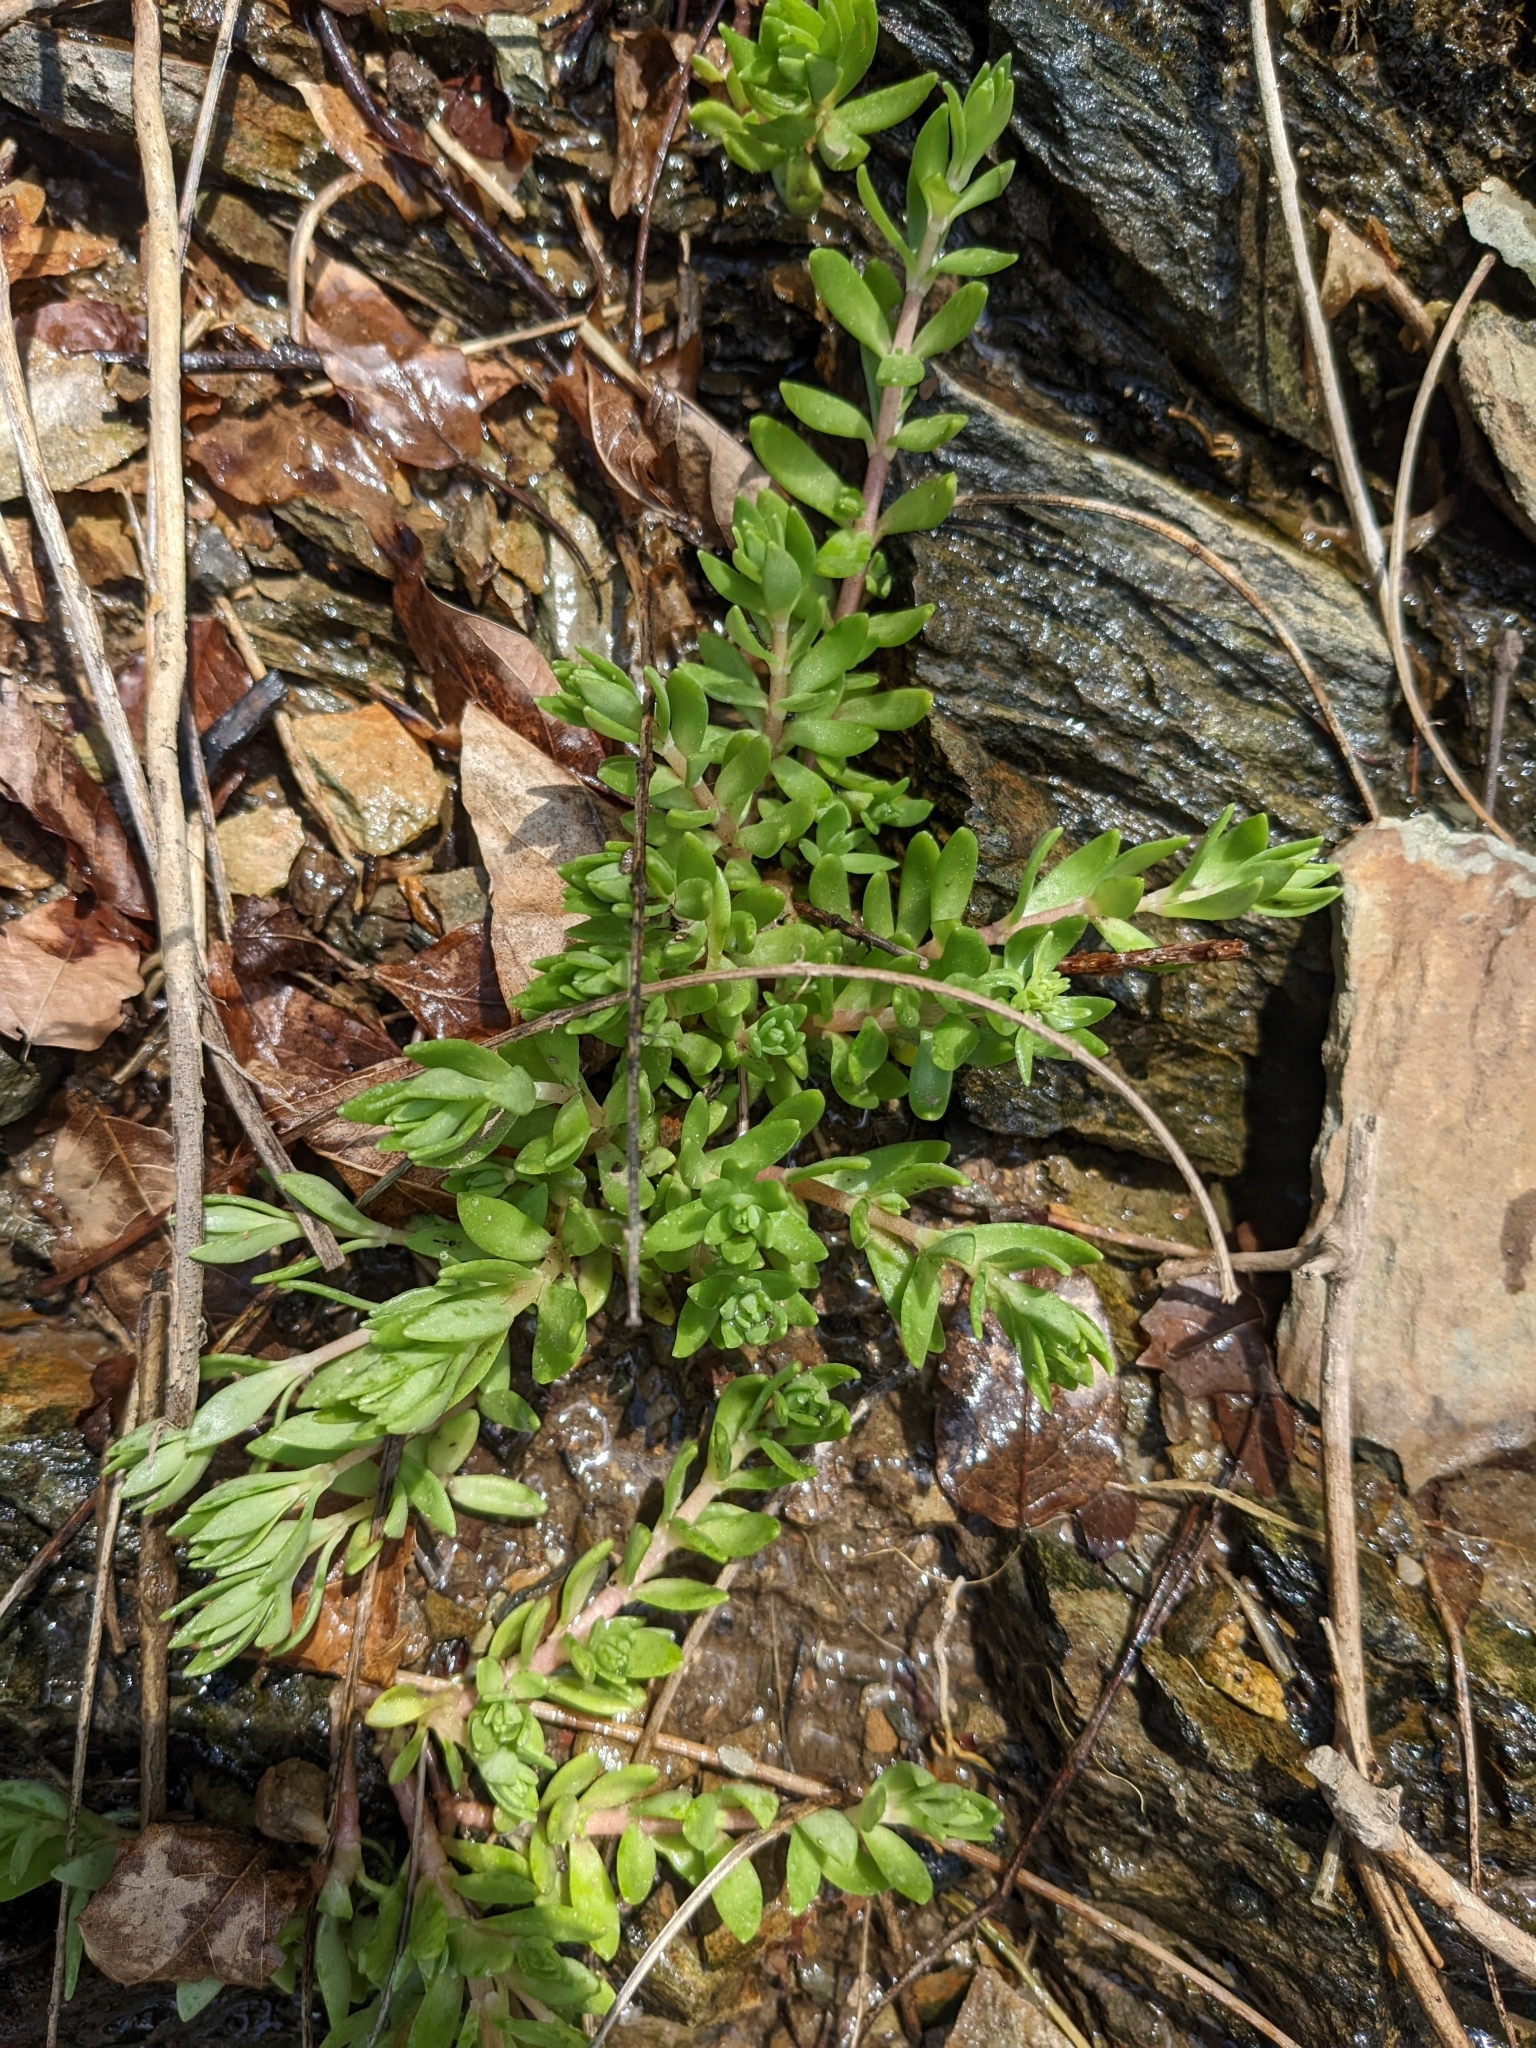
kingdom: Plantae
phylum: Tracheophyta
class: Magnoliopsida
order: Saxifragales
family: Crassulaceae
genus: Sedum
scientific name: Sedum sarmentosum
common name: Stringy stonecrop
